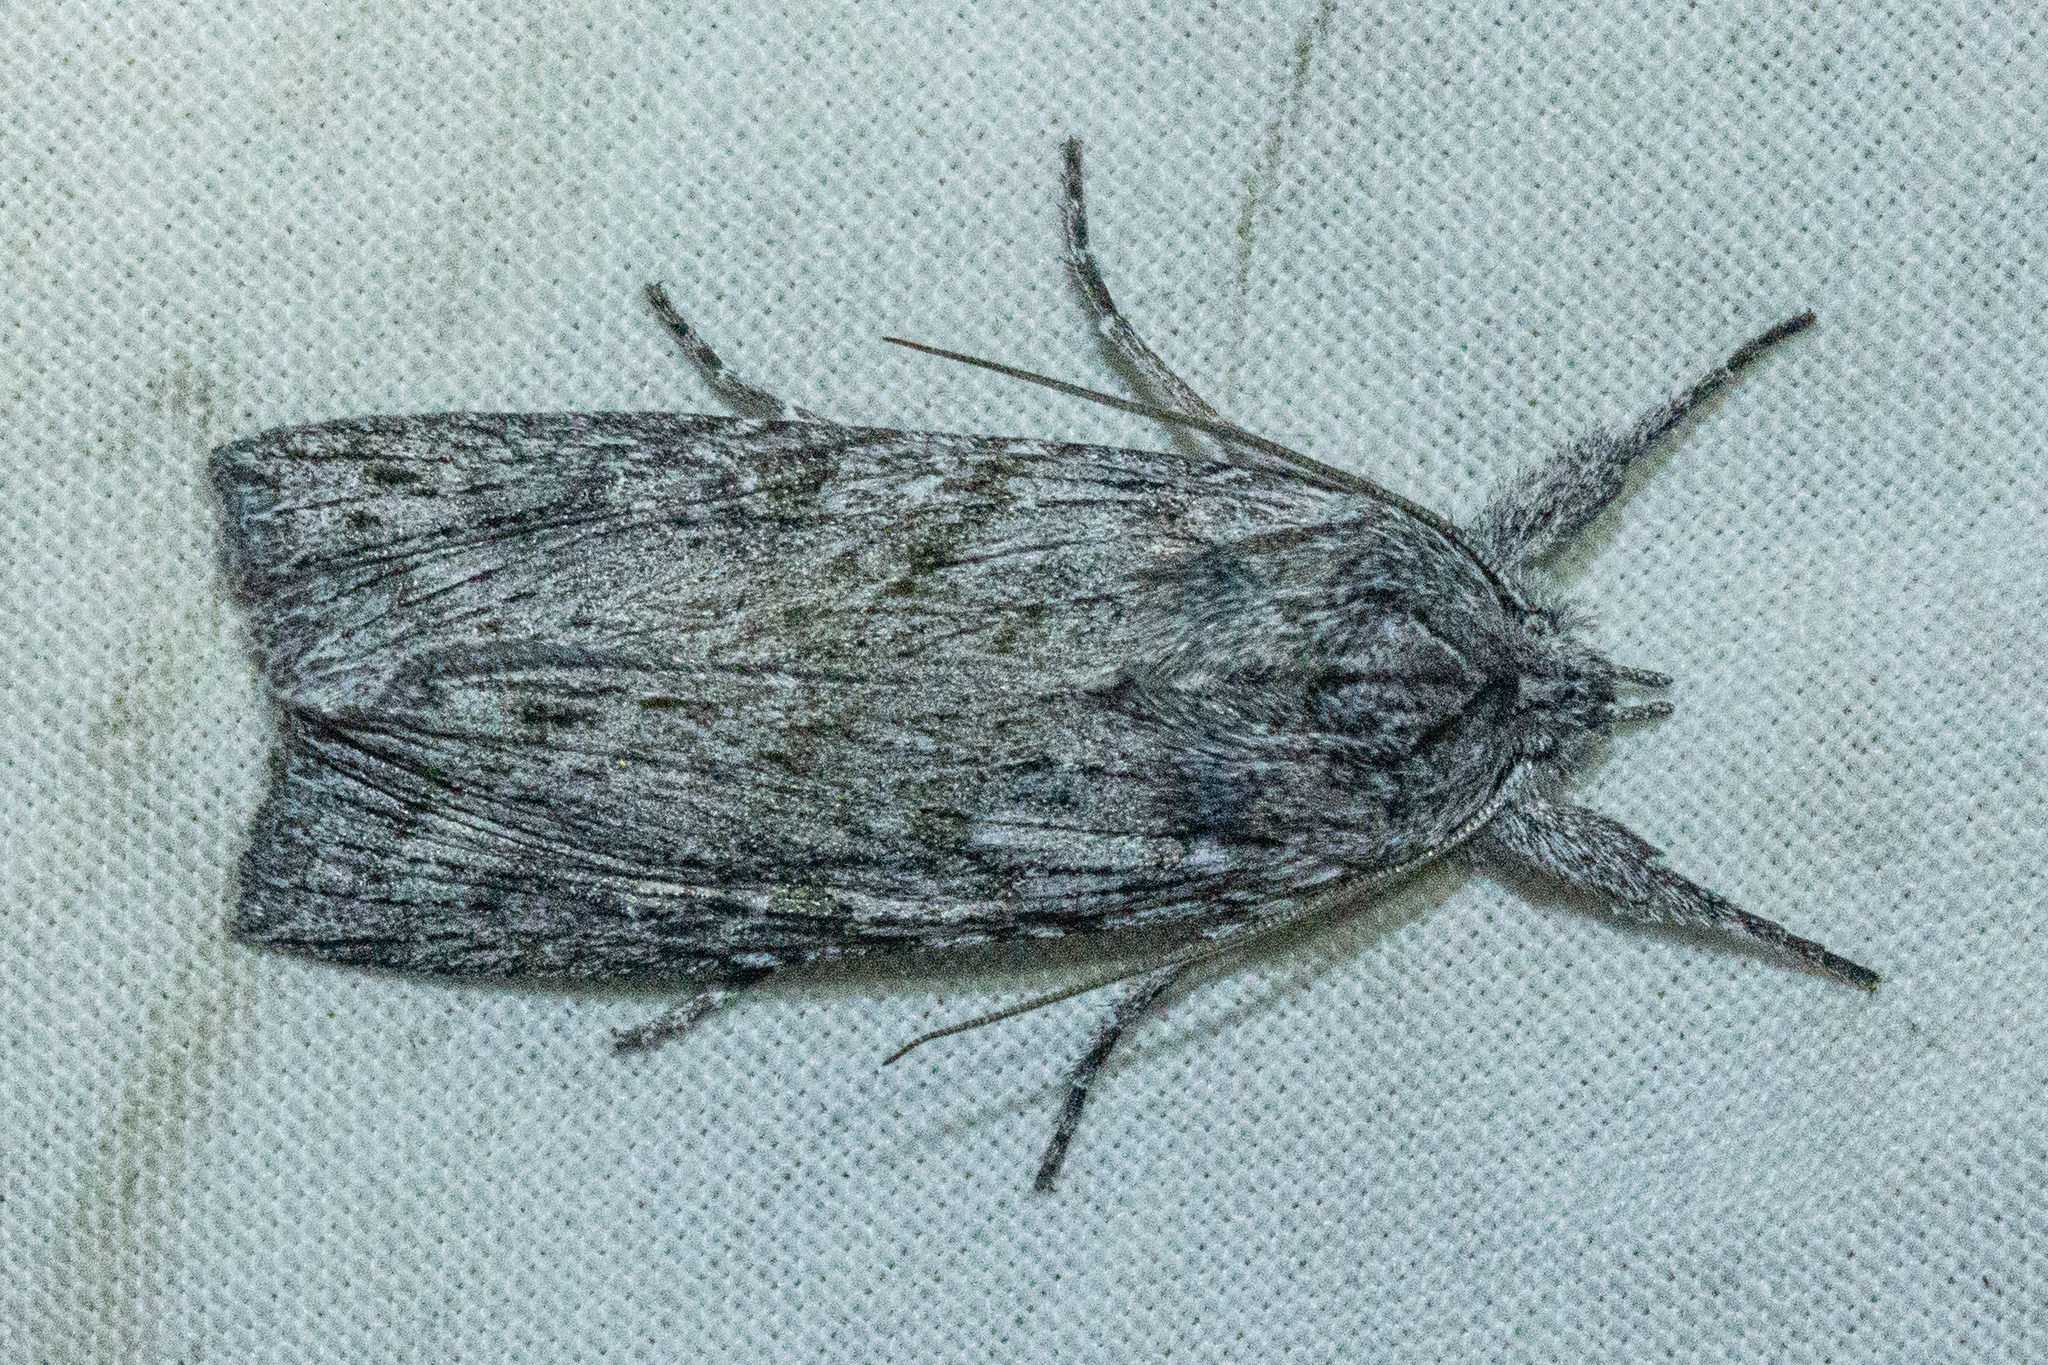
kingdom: Animalia
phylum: Arthropoda
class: Insecta
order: Lepidoptera
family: Noctuidae
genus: Physetica
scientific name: Physetica phricias
